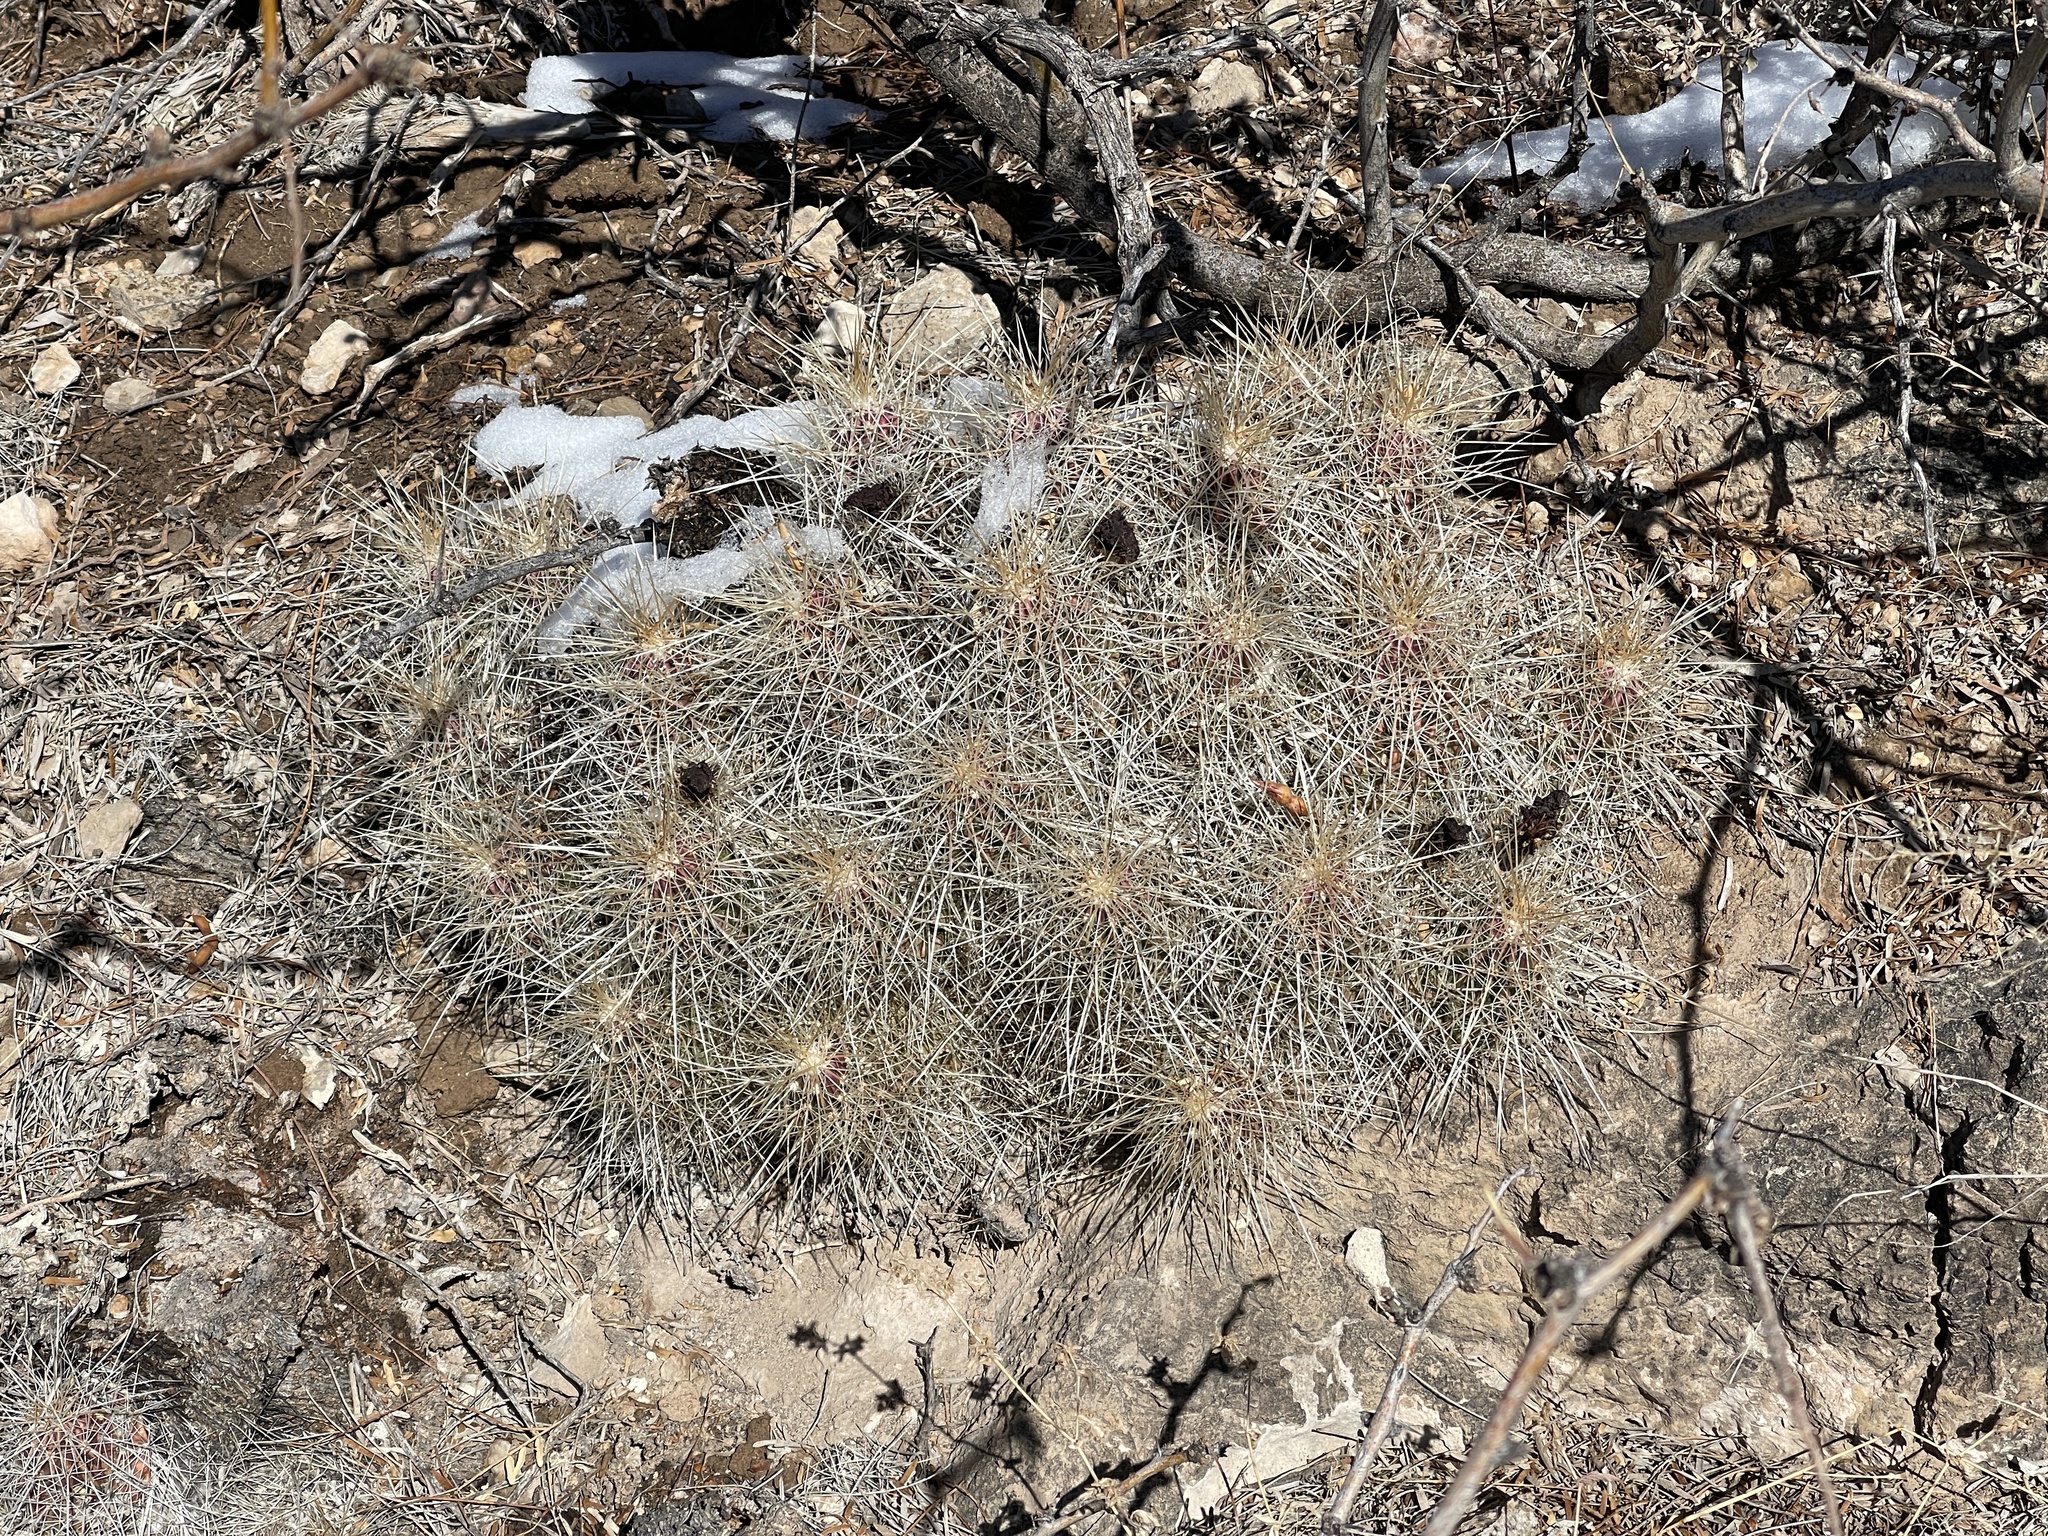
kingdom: Plantae
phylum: Tracheophyta
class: Magnoliopsida
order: Caryophyllales
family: Cactaceae
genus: Echinocereus
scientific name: Echinocereus stramineus
